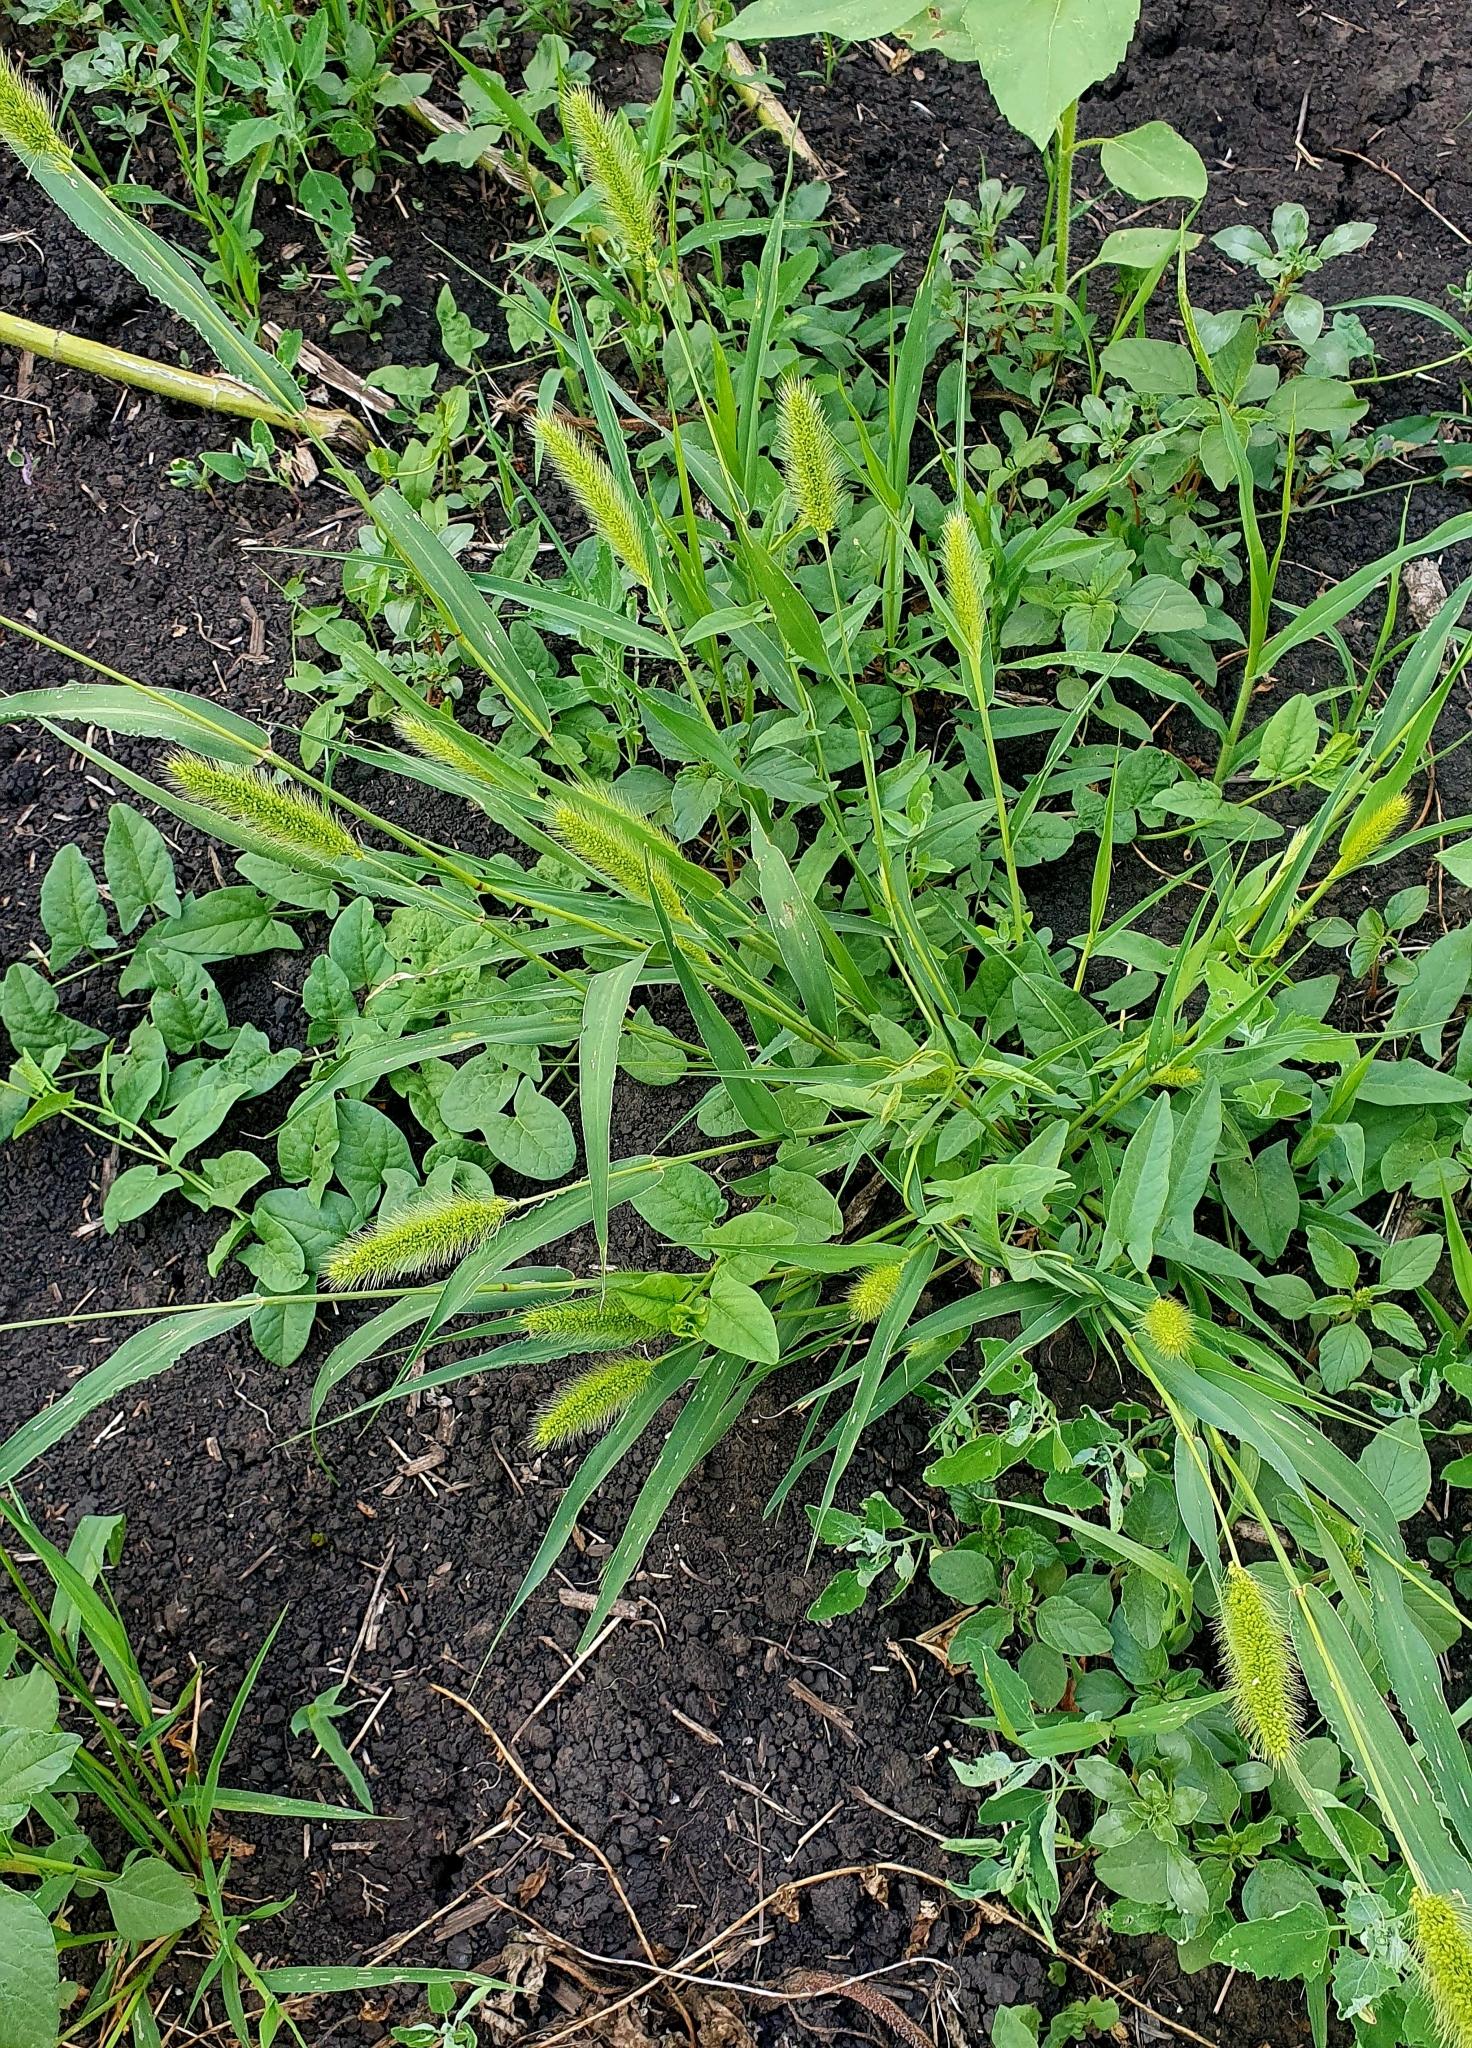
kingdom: Plantae
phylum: Tracheophyta
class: Liliopsida
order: Poales
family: Poaceae
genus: Setaria
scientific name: Setaria viridis
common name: Green bristlegrass
